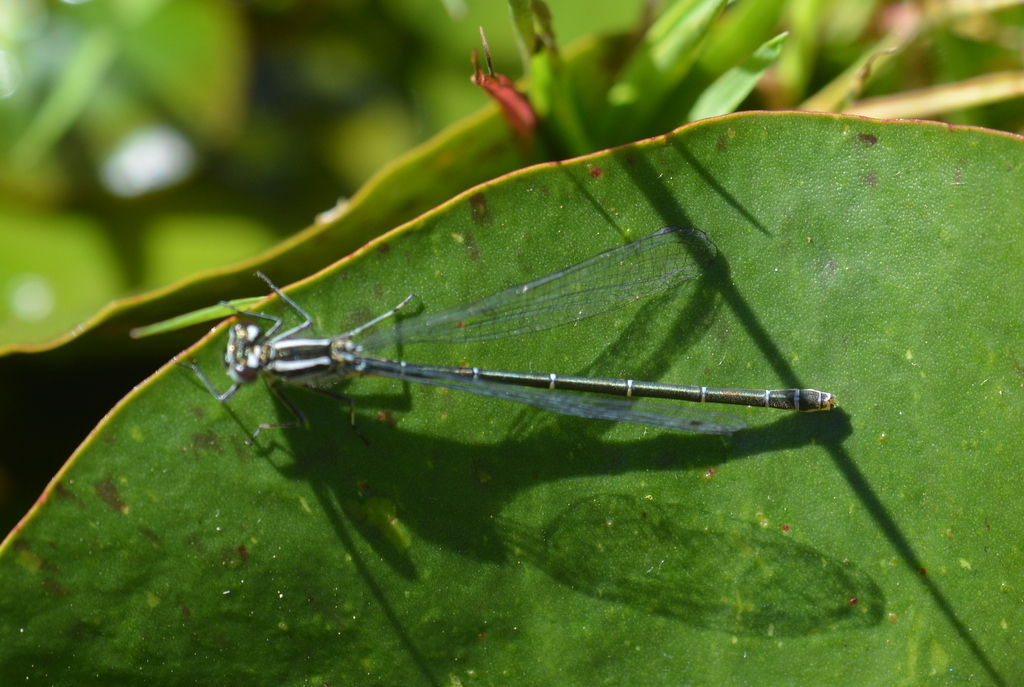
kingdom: Animalia
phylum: Arthropoda
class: Insecta
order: Odonata
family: Coenagrionidae
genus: Coenagrion
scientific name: Coenagrion puella
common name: Azure damselfly
